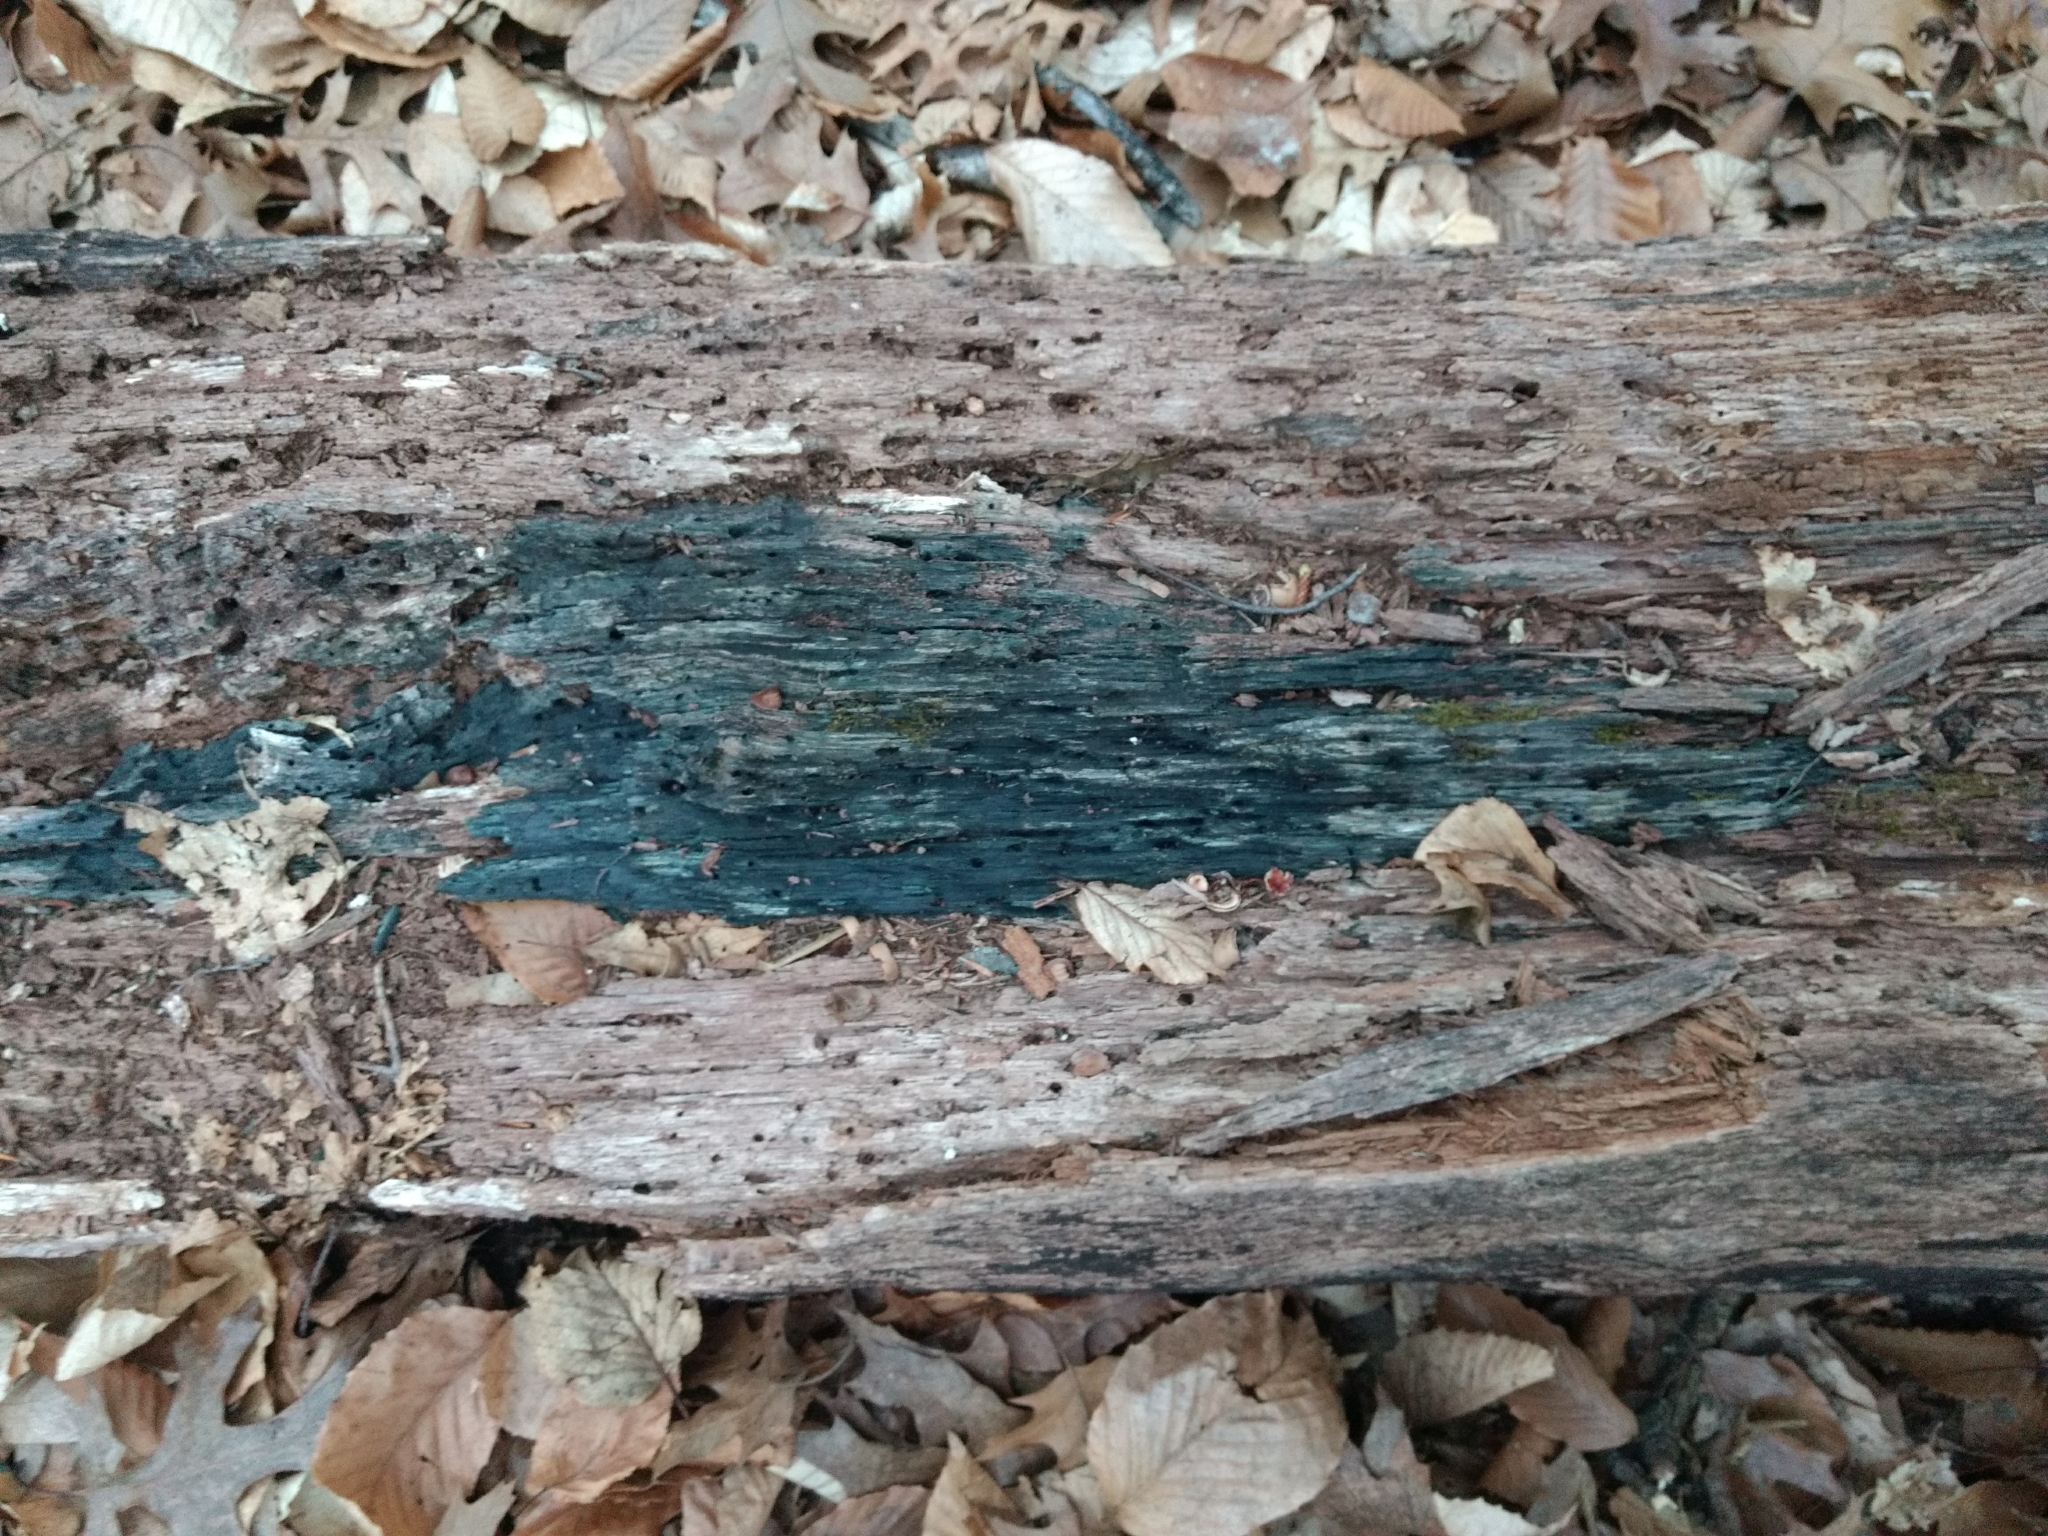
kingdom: Fungi
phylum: Ascomycota
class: Leotiomycetes
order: Helotiales
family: Chlorociboriaceae
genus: Chlorociboria
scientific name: Chlorociboria
